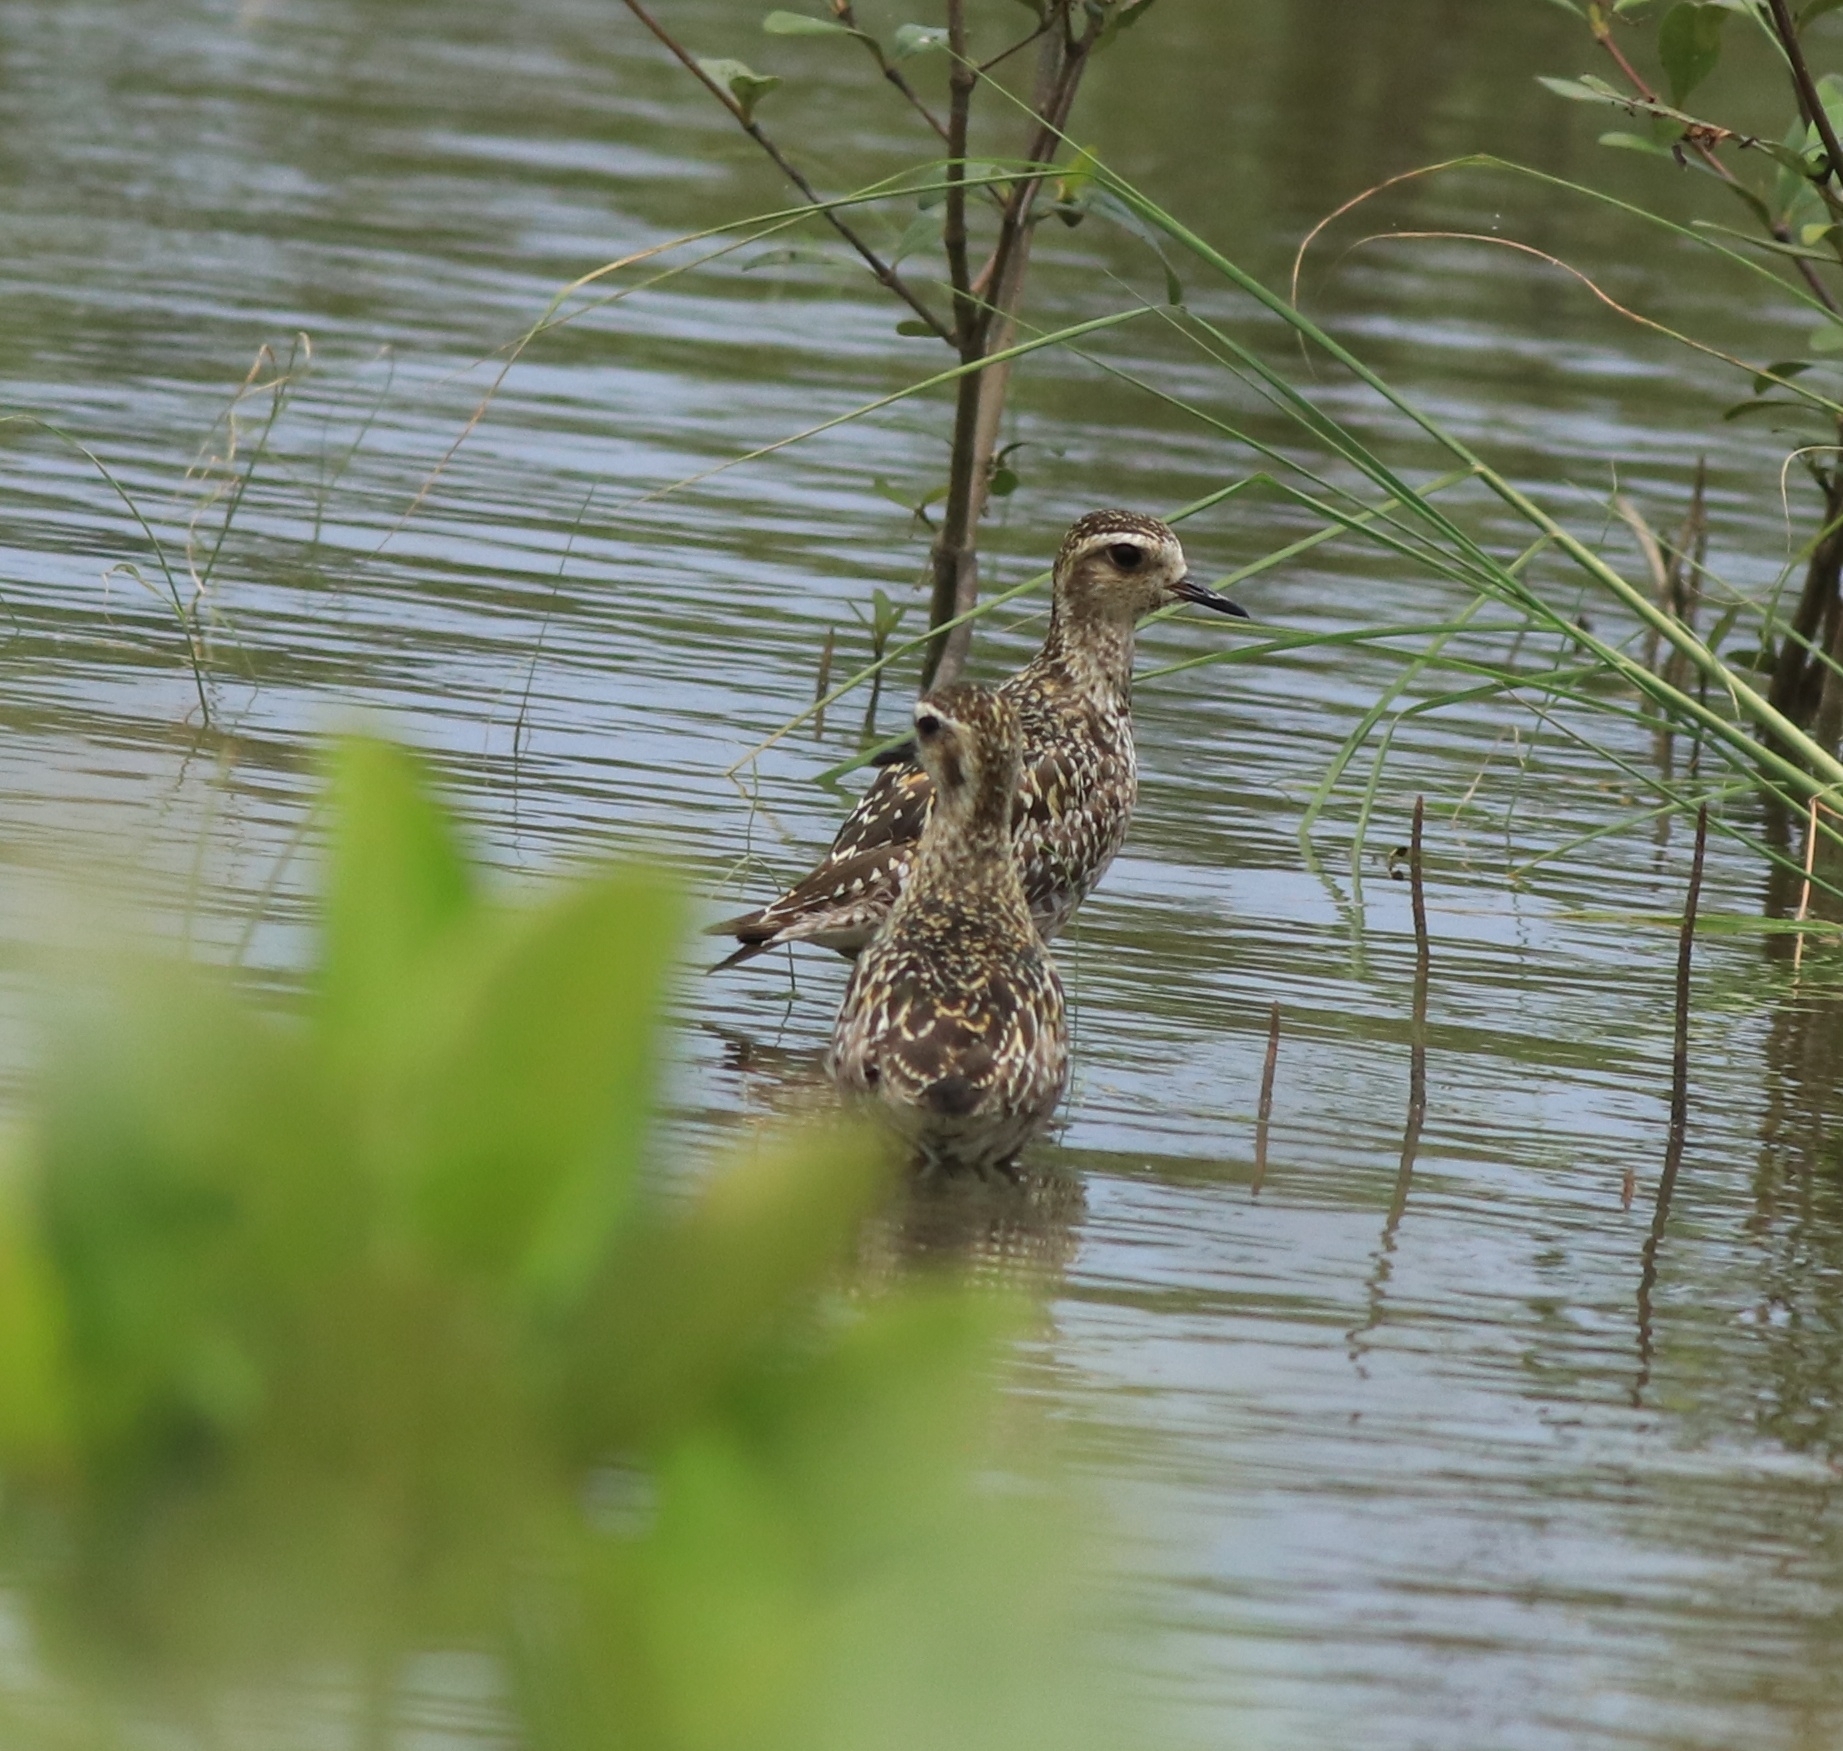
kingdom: Animalia
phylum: Chordata
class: Aves
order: Charadriiformes
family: Charadriidae
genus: Pluvialis
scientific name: Pluvialis fulva
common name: Pacific golden plover
